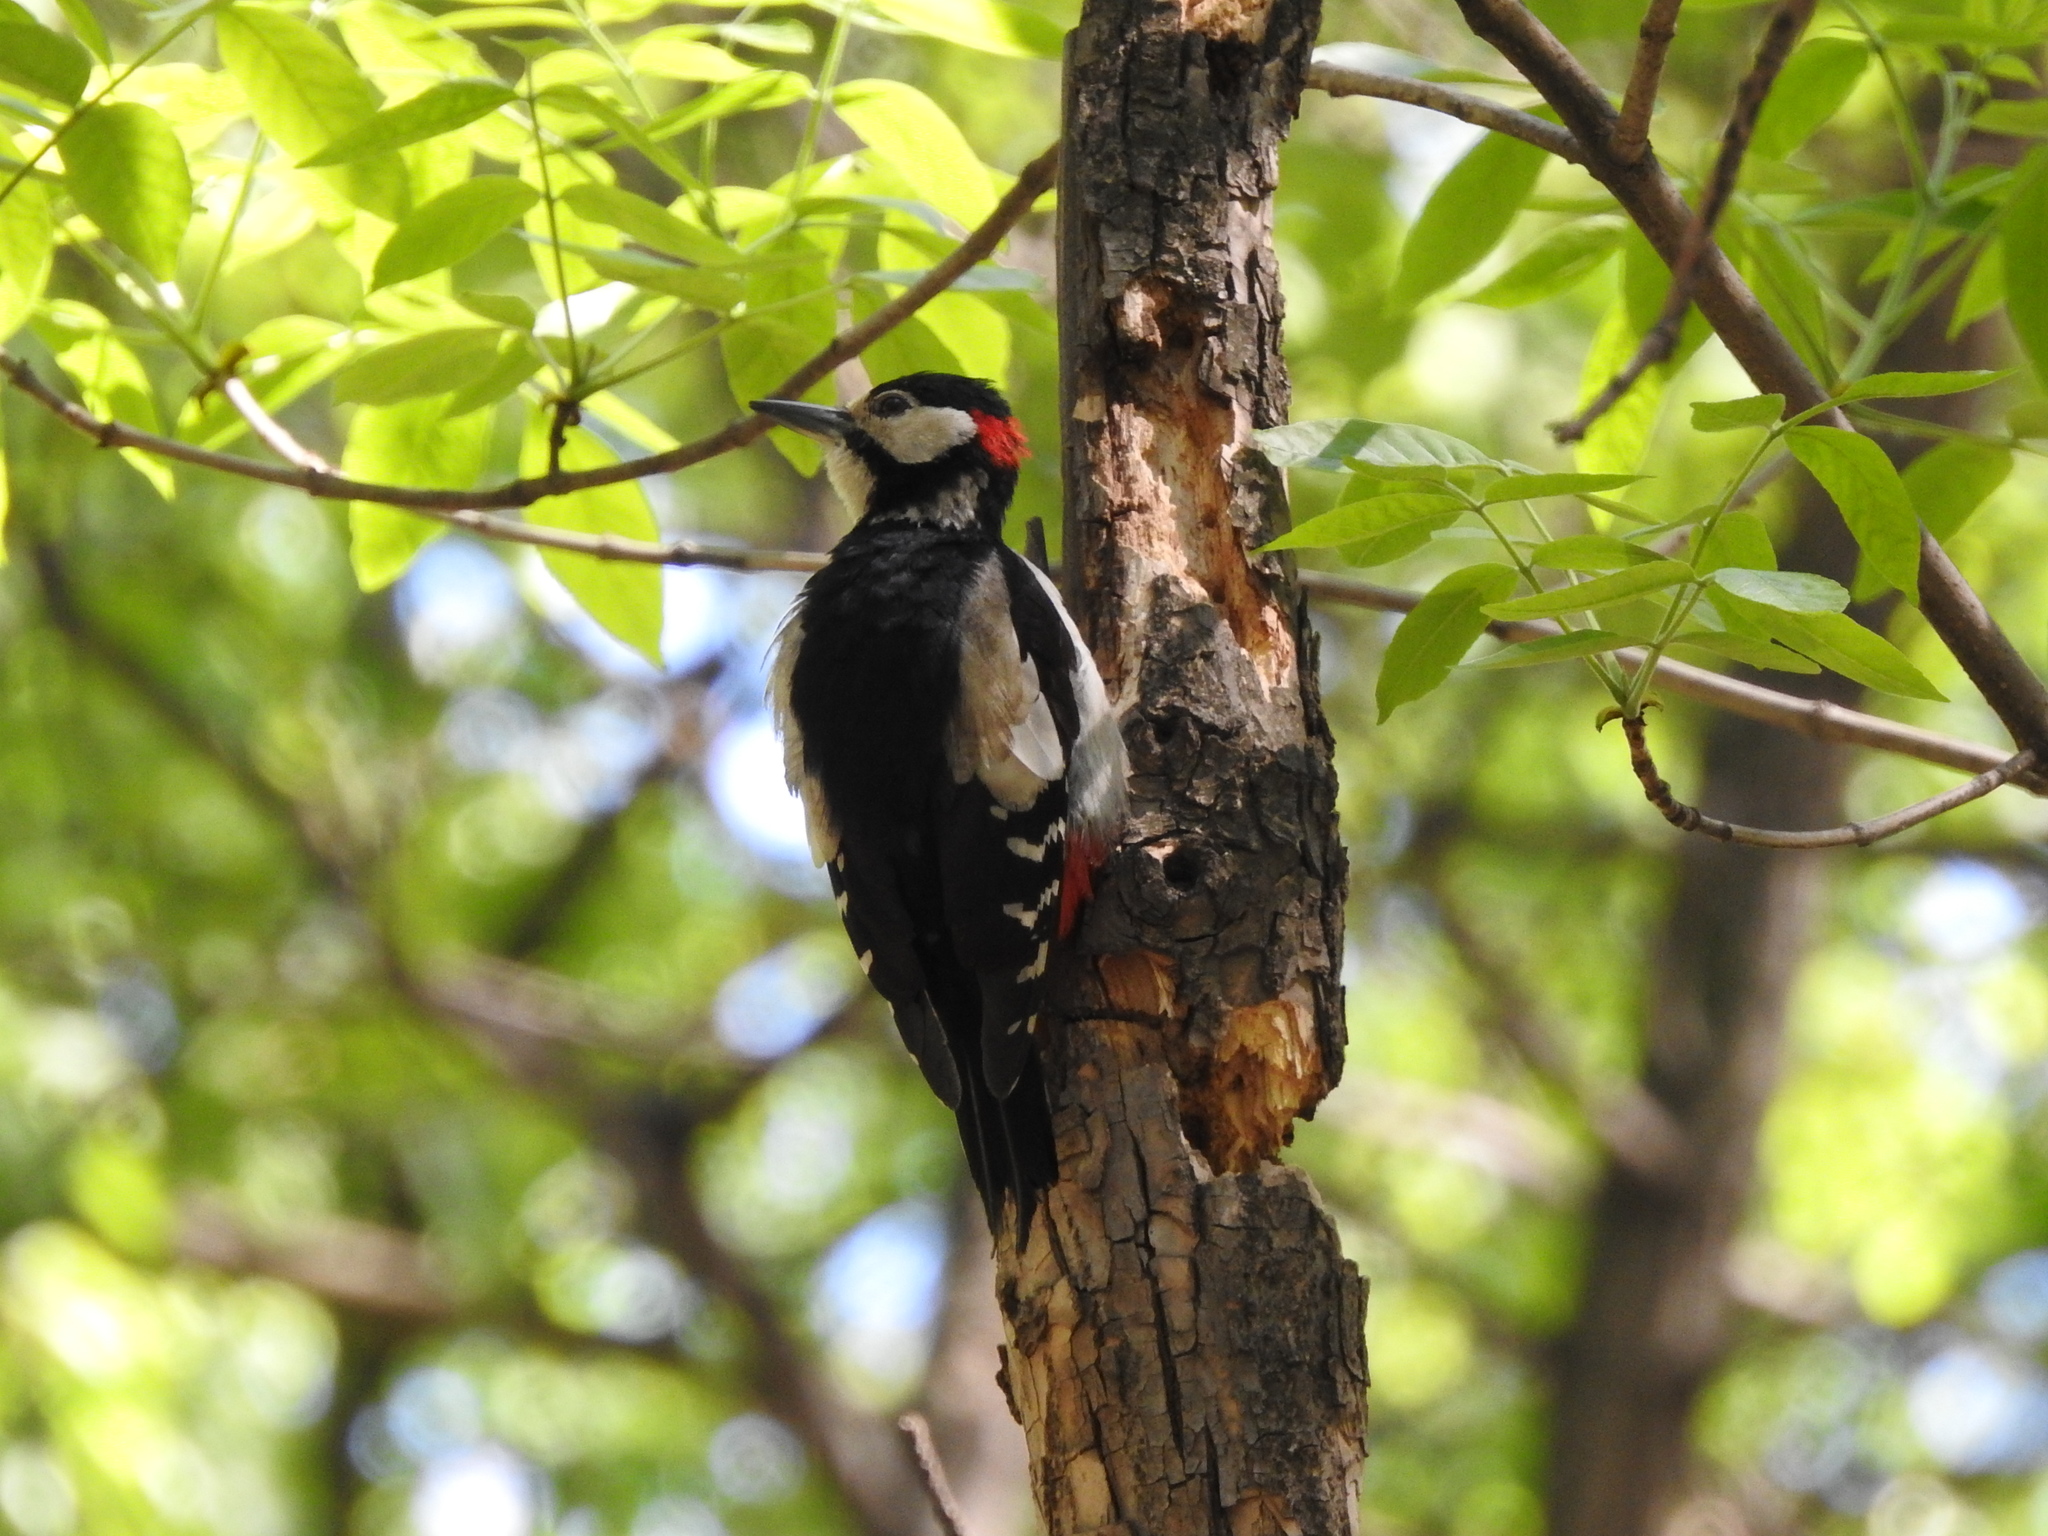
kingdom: Animalia
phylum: Chordata
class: Aves
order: Piciformes
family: Picidae
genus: Dendrocopos
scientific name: Dendrocopos major
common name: Great spotted woodpecker
